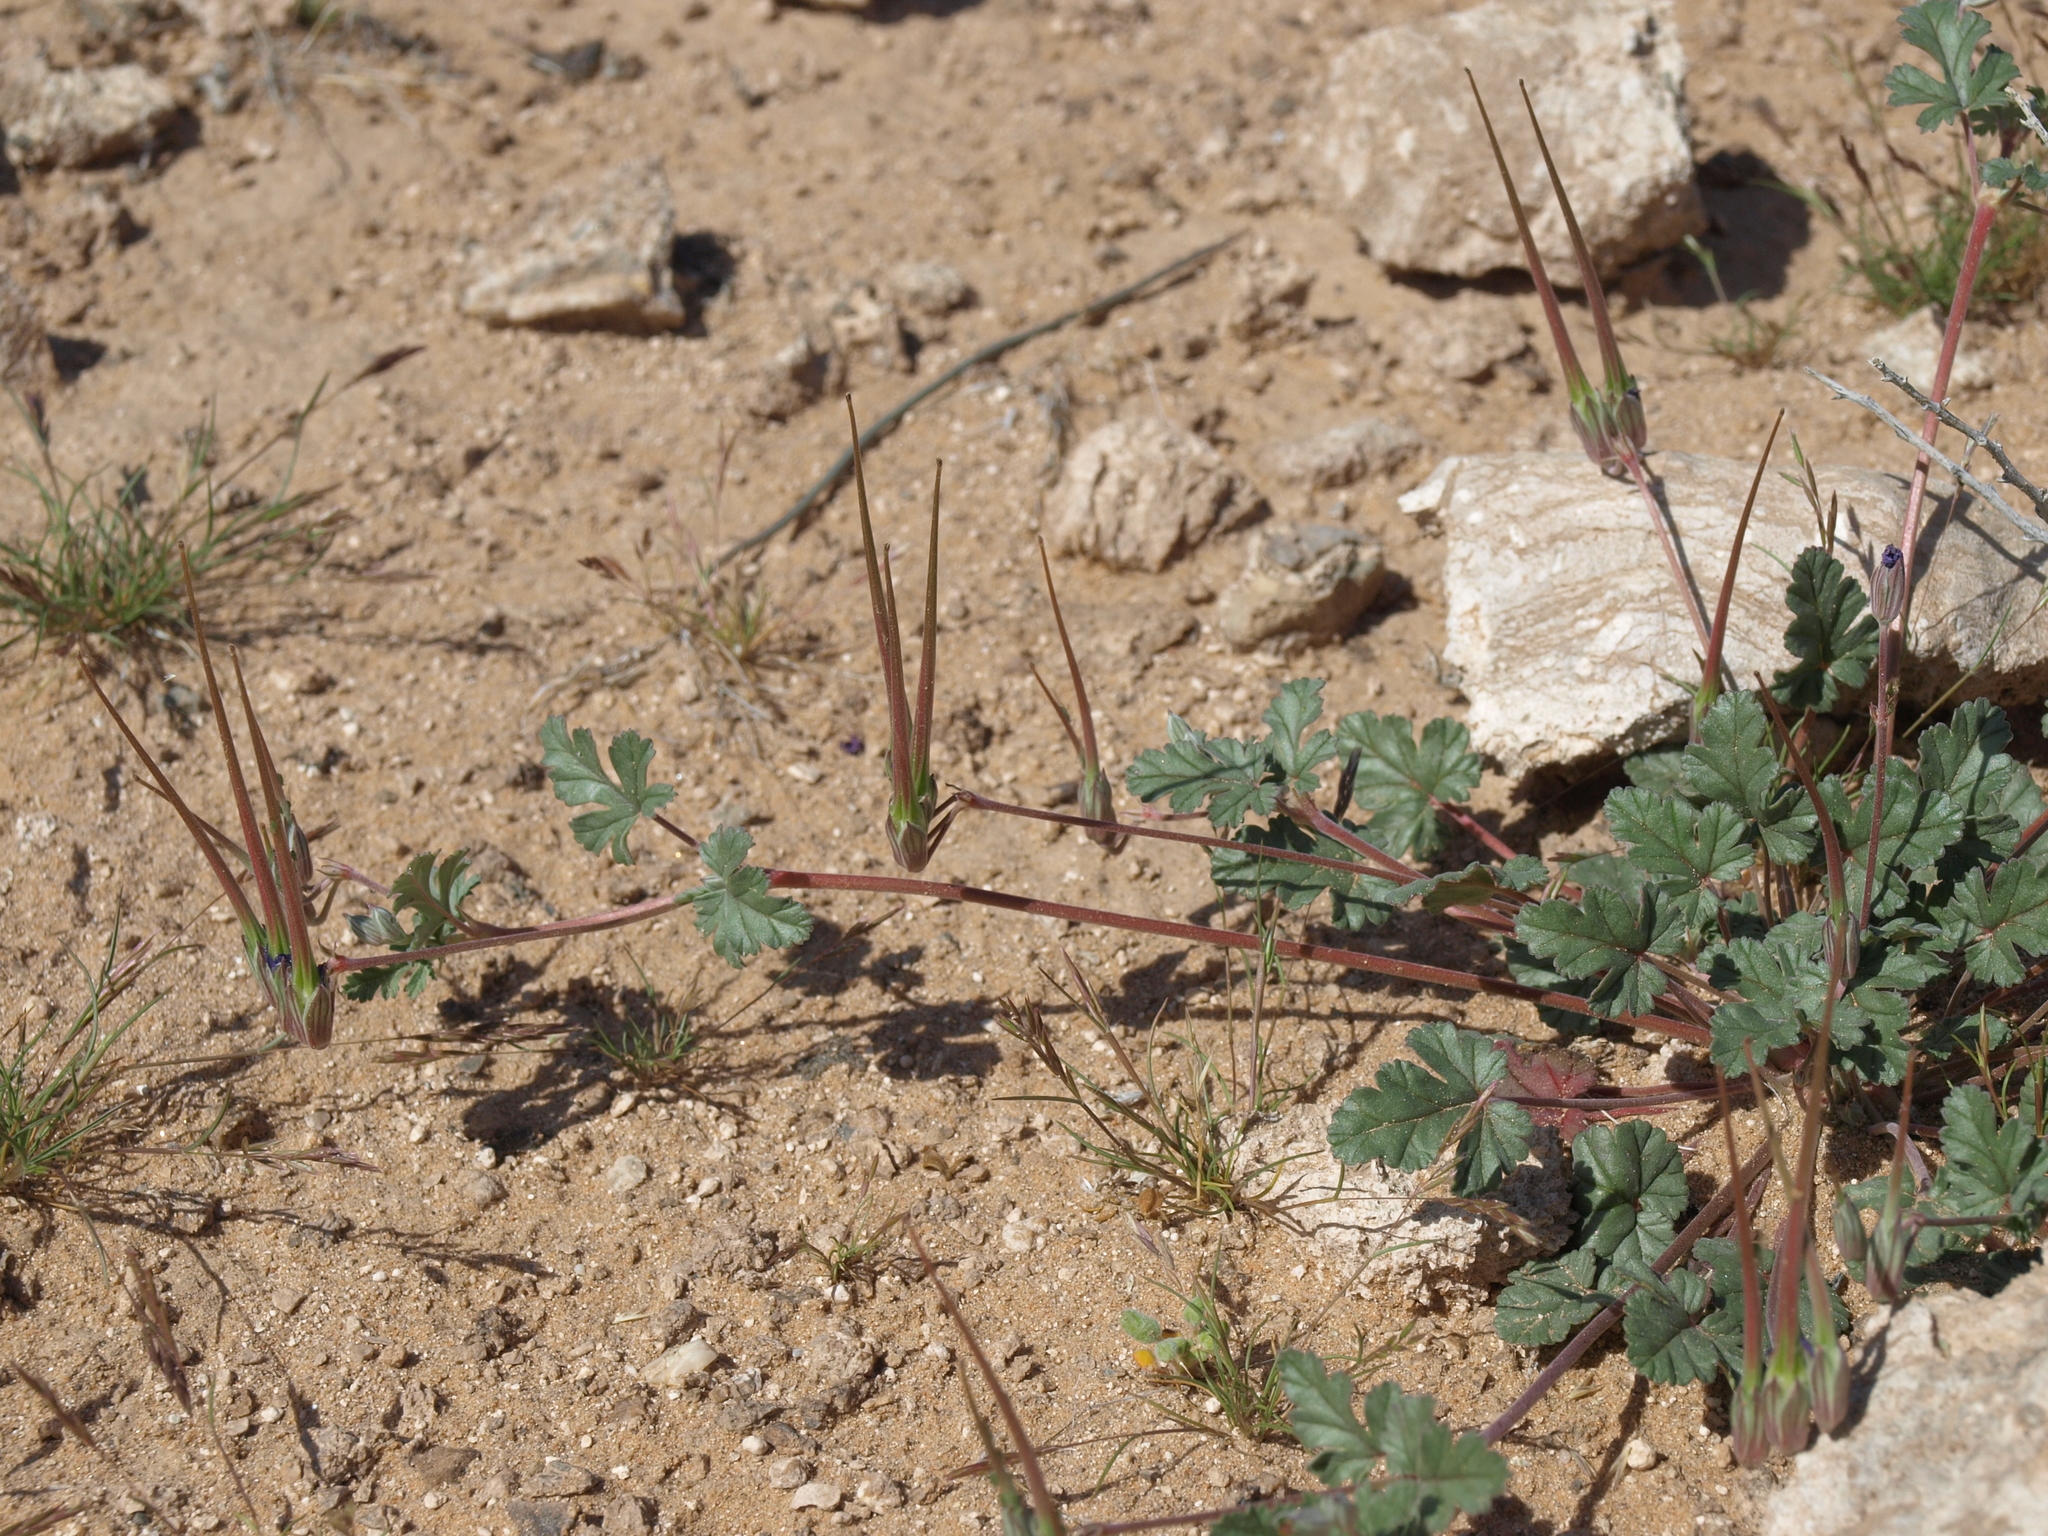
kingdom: Plantae
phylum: Tracheophyta
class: Magnoliopsida
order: Geraniales
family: Geraniaceae
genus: Erodium
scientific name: Erodium texanum
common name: Texas stork's-bill
